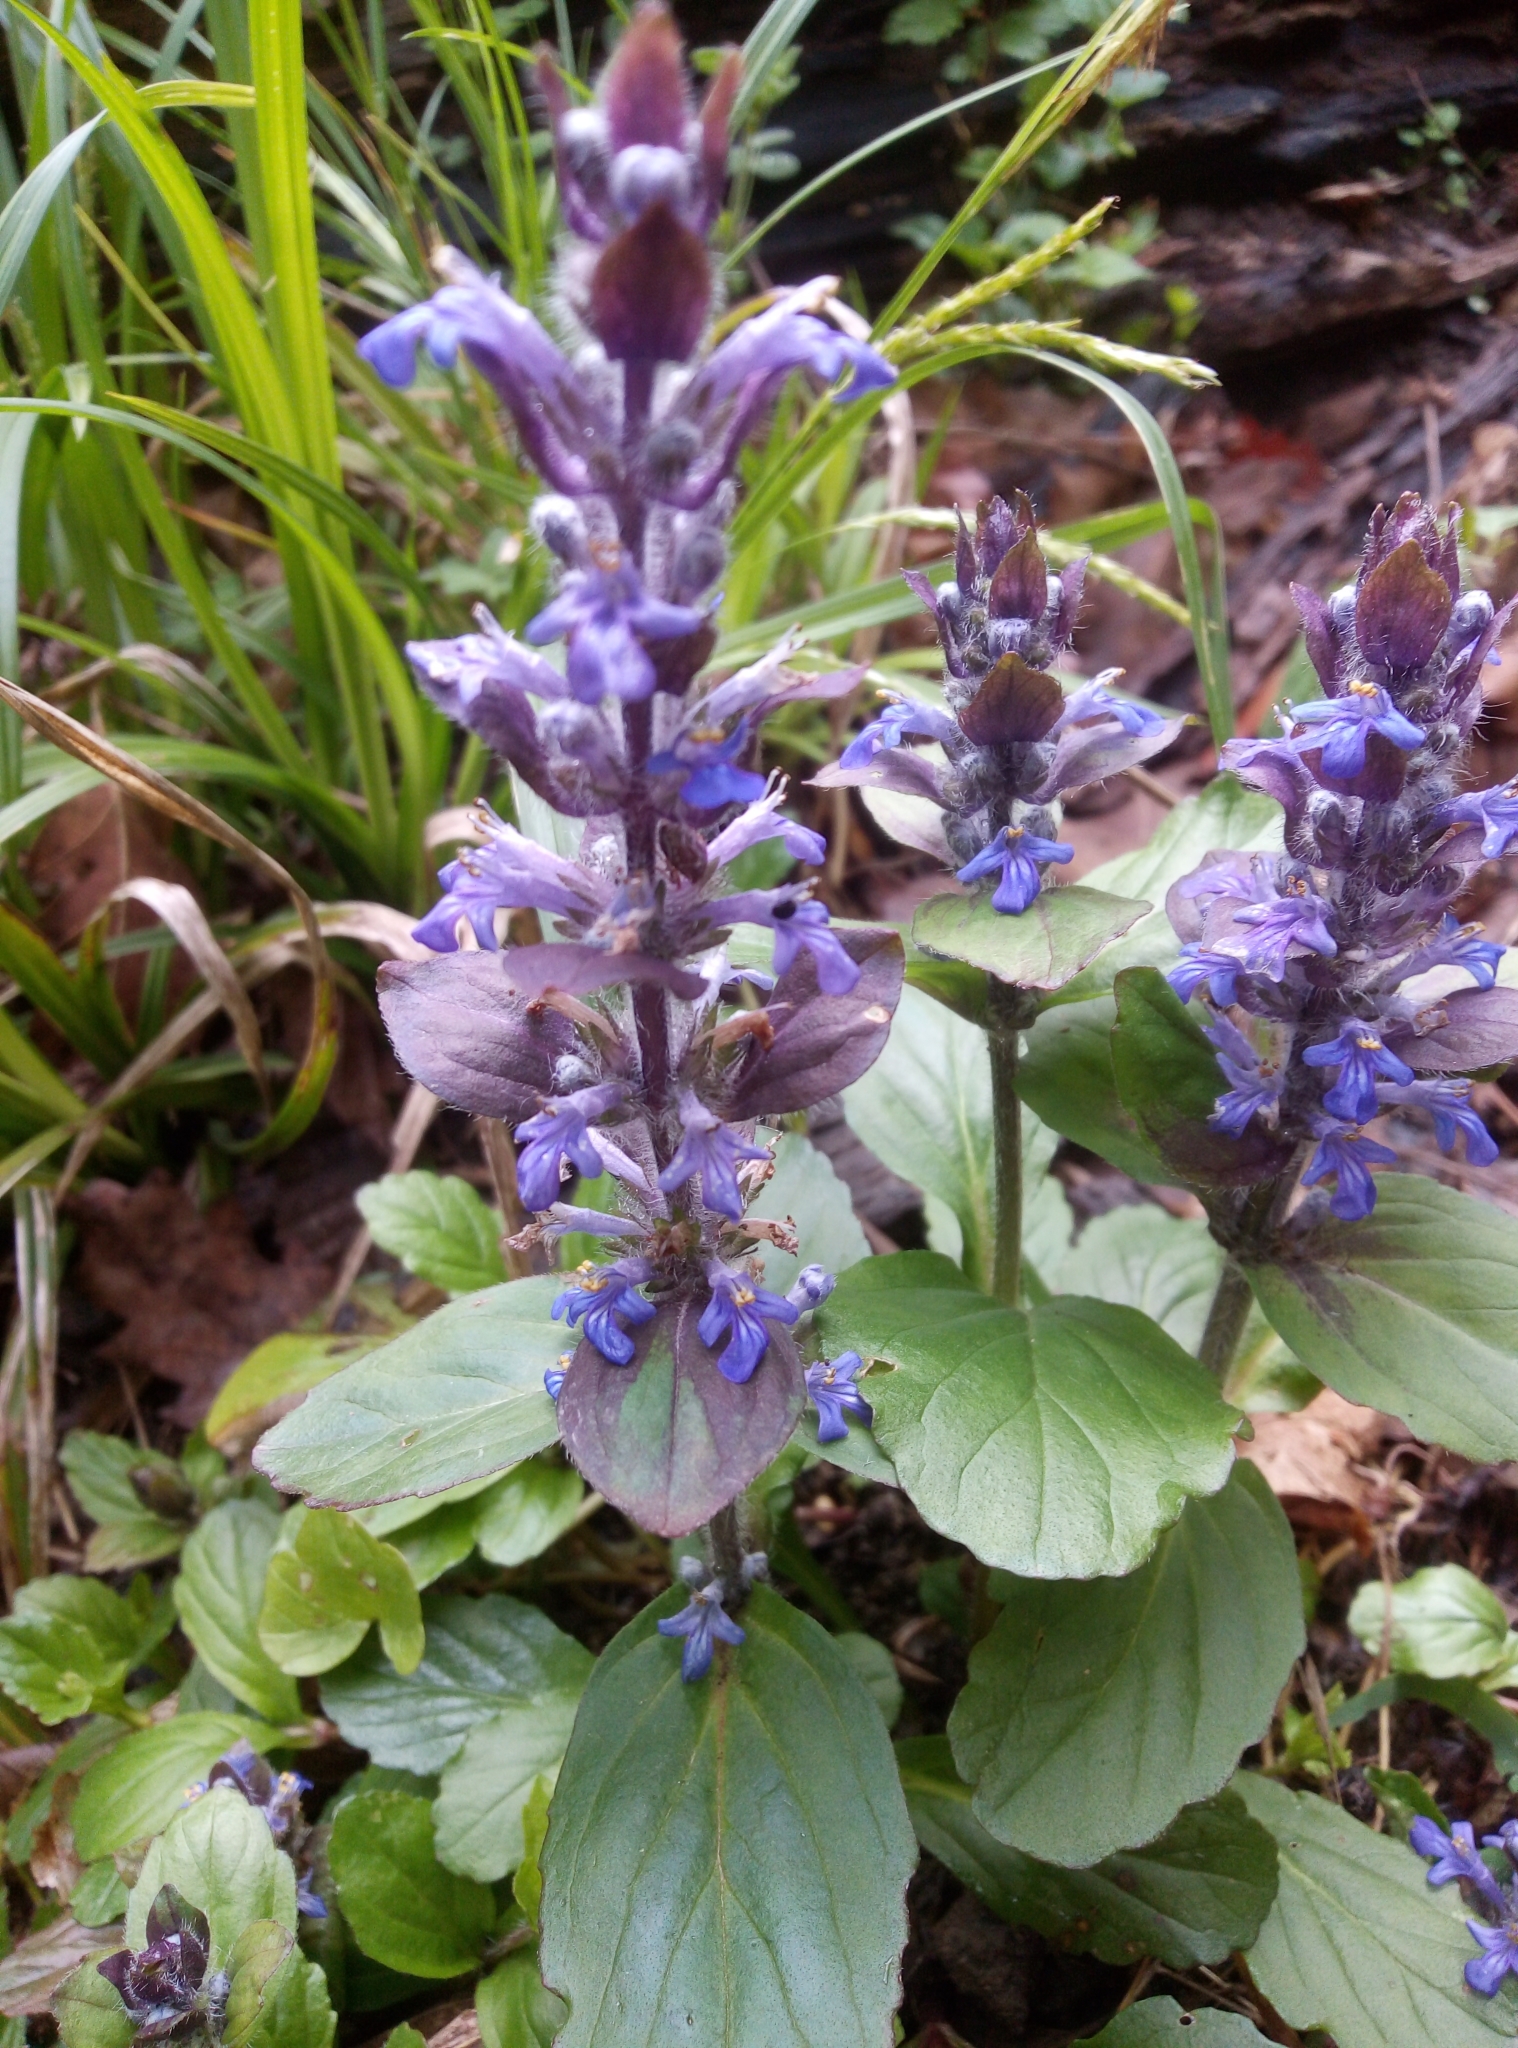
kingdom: Plantae
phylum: Tracheophyta
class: Magnoliopsida
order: Lamiales
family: Lamiaceae
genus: Ajuga
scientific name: Ajuga reptans
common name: Bugle
